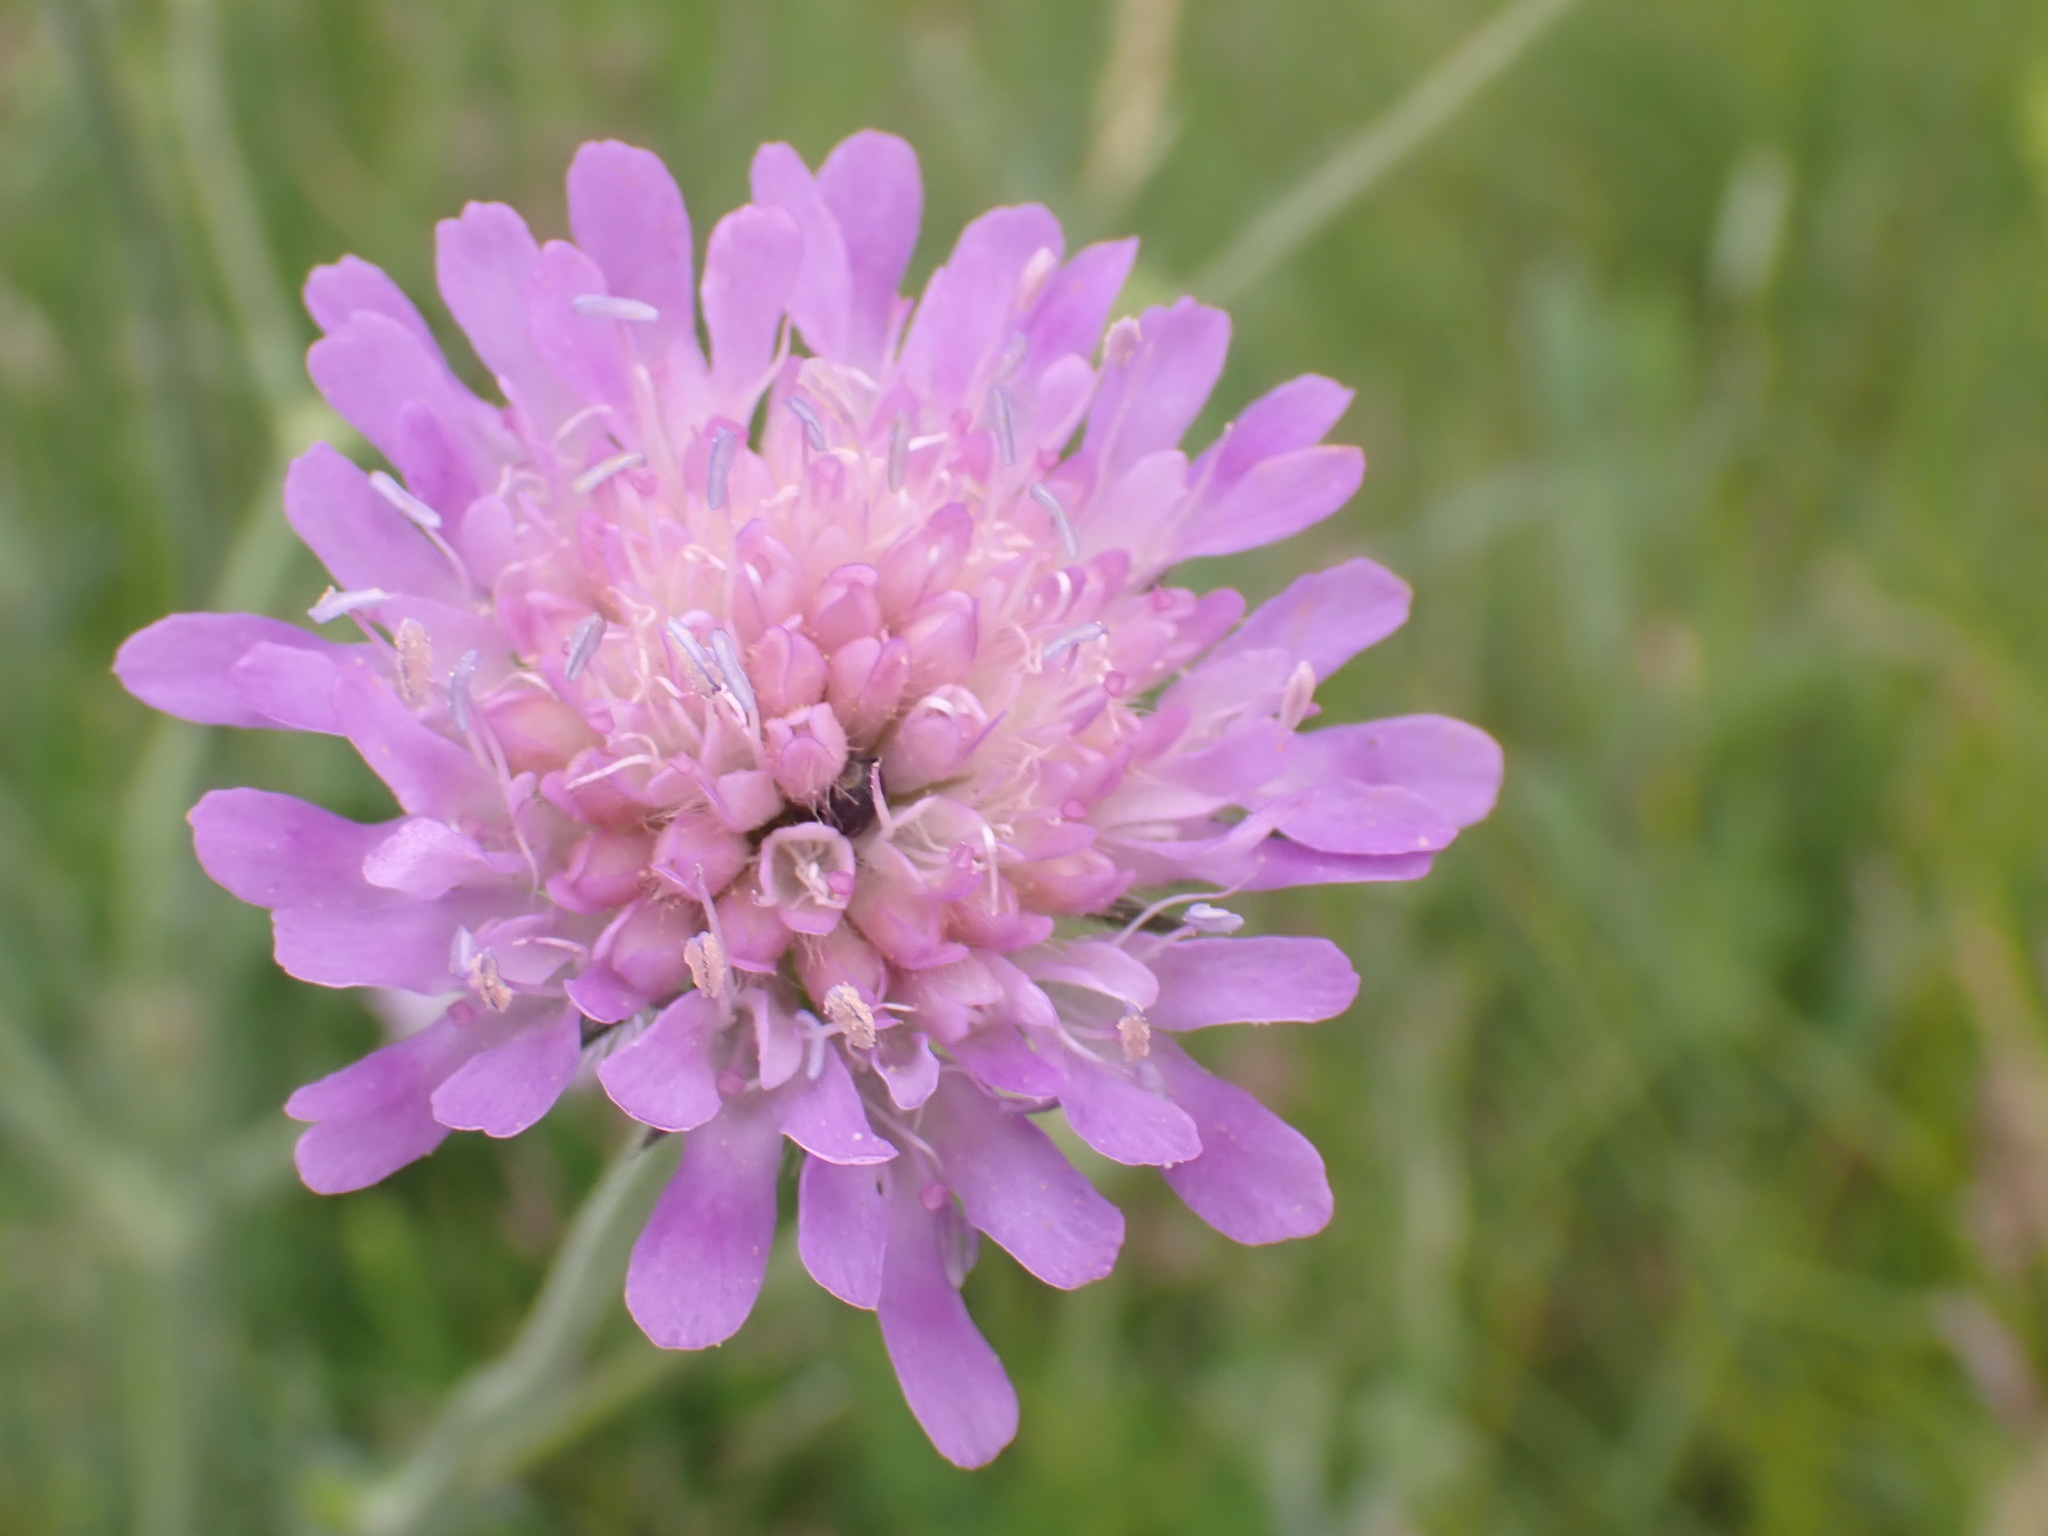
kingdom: Plantae
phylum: Tracheophyta
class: Magnoliopsida
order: Dipsacales
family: Caprifoliaceae
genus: Knautia
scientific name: Knautia arvensis
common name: Field scabiosa
